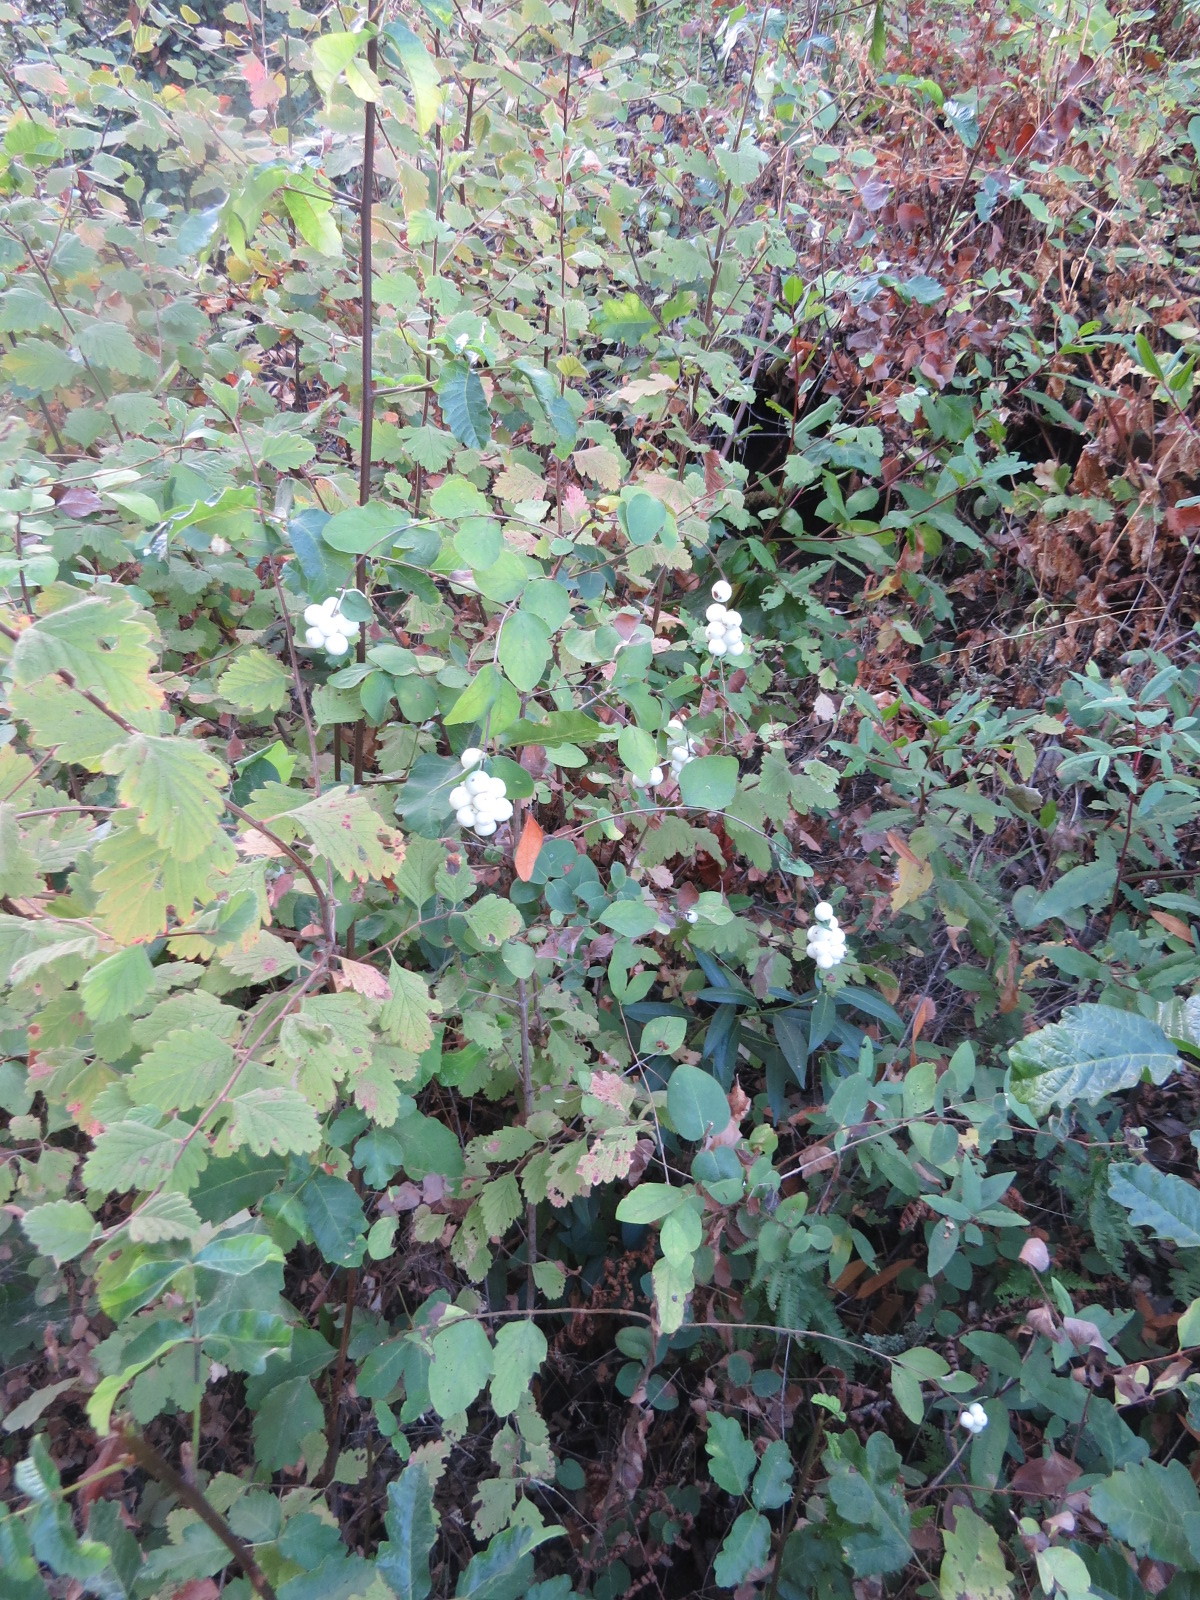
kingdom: Plantae
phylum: Tracheophyta
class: Magnoliopsida
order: Dipsacales
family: Caprifoliaceae
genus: Symphoricarpos
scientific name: Symphoricarpos albus
